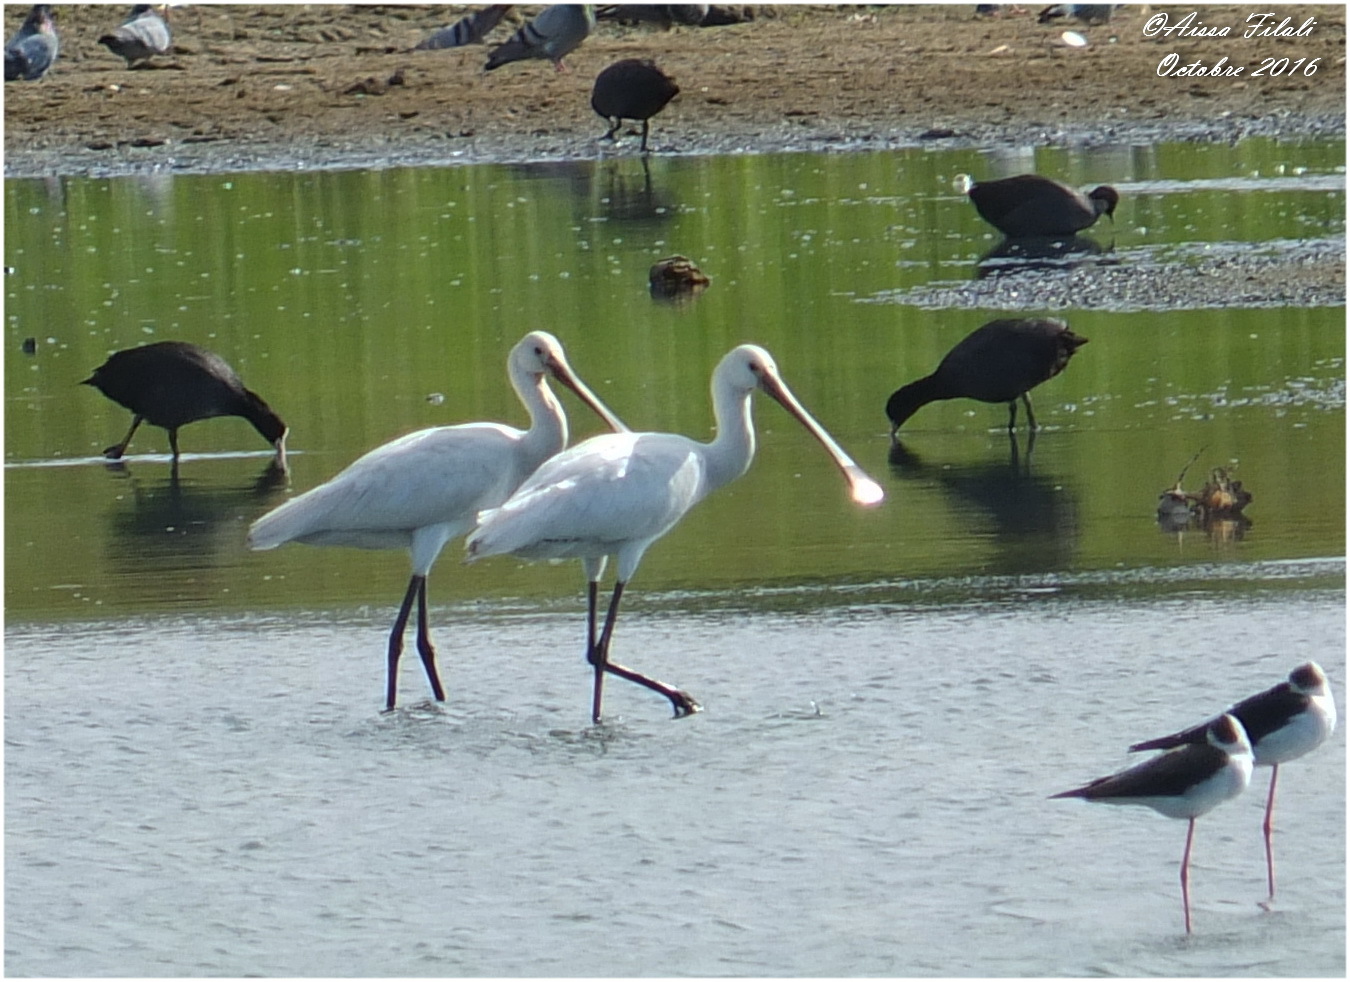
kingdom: Animalia
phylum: Chordata
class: Aves
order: Pelecaniformes
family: Threskiornithidae
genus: Platalea
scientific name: Platalea leucorodia
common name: Eurasian spoonbill
